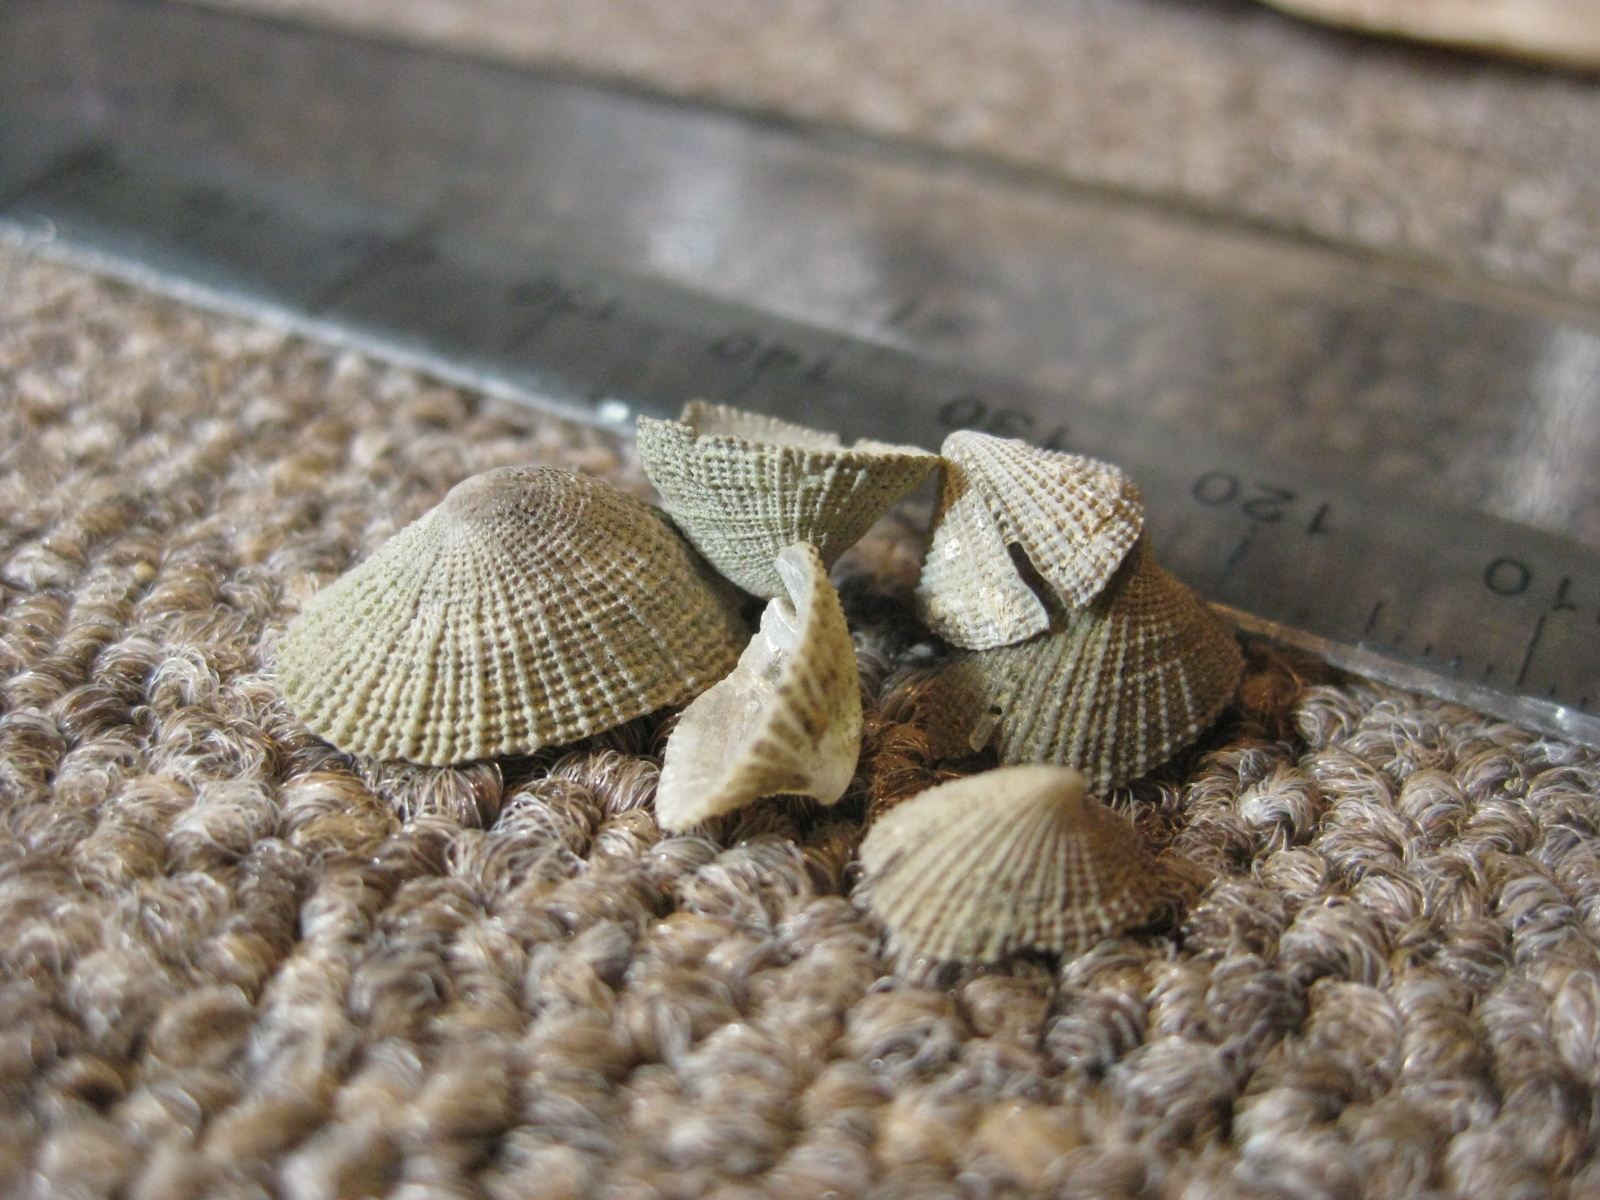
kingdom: Animalia
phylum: Mollusca
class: Gastropoda
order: Lepetellida
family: Fissurellidae
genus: Emarginula
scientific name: Emarginula striatula
